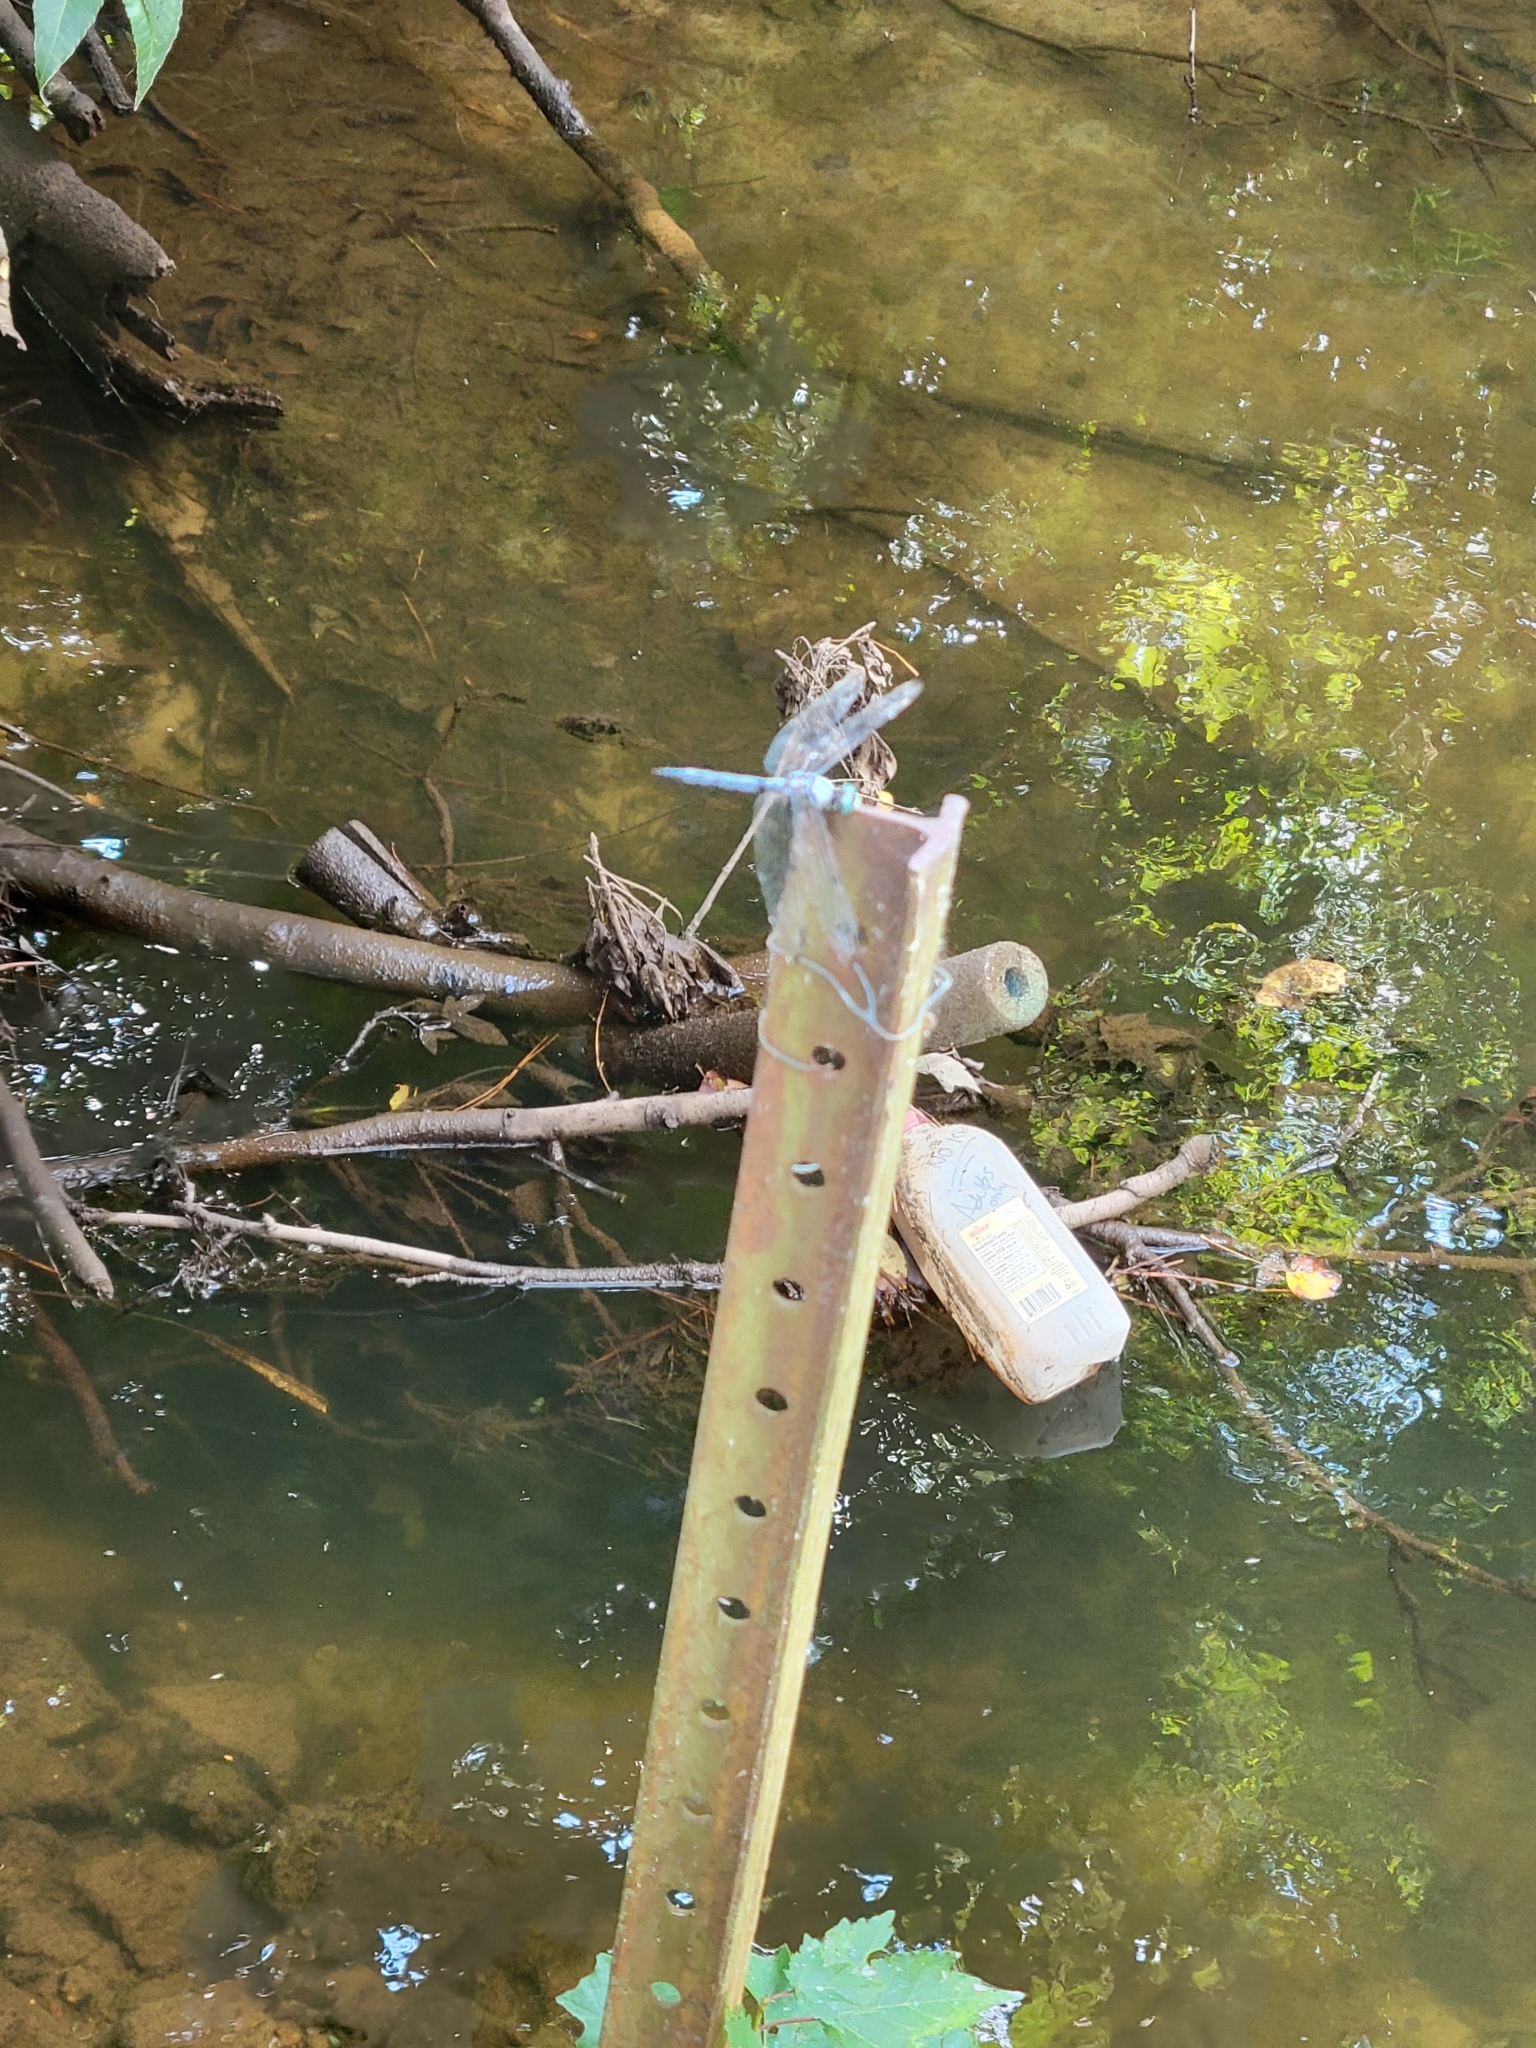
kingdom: Animalia
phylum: Arthropoda
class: Insecta
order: Odonata
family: Libellulidae
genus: Libellula
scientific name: Libellula vibrans
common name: Great blue skimmer
